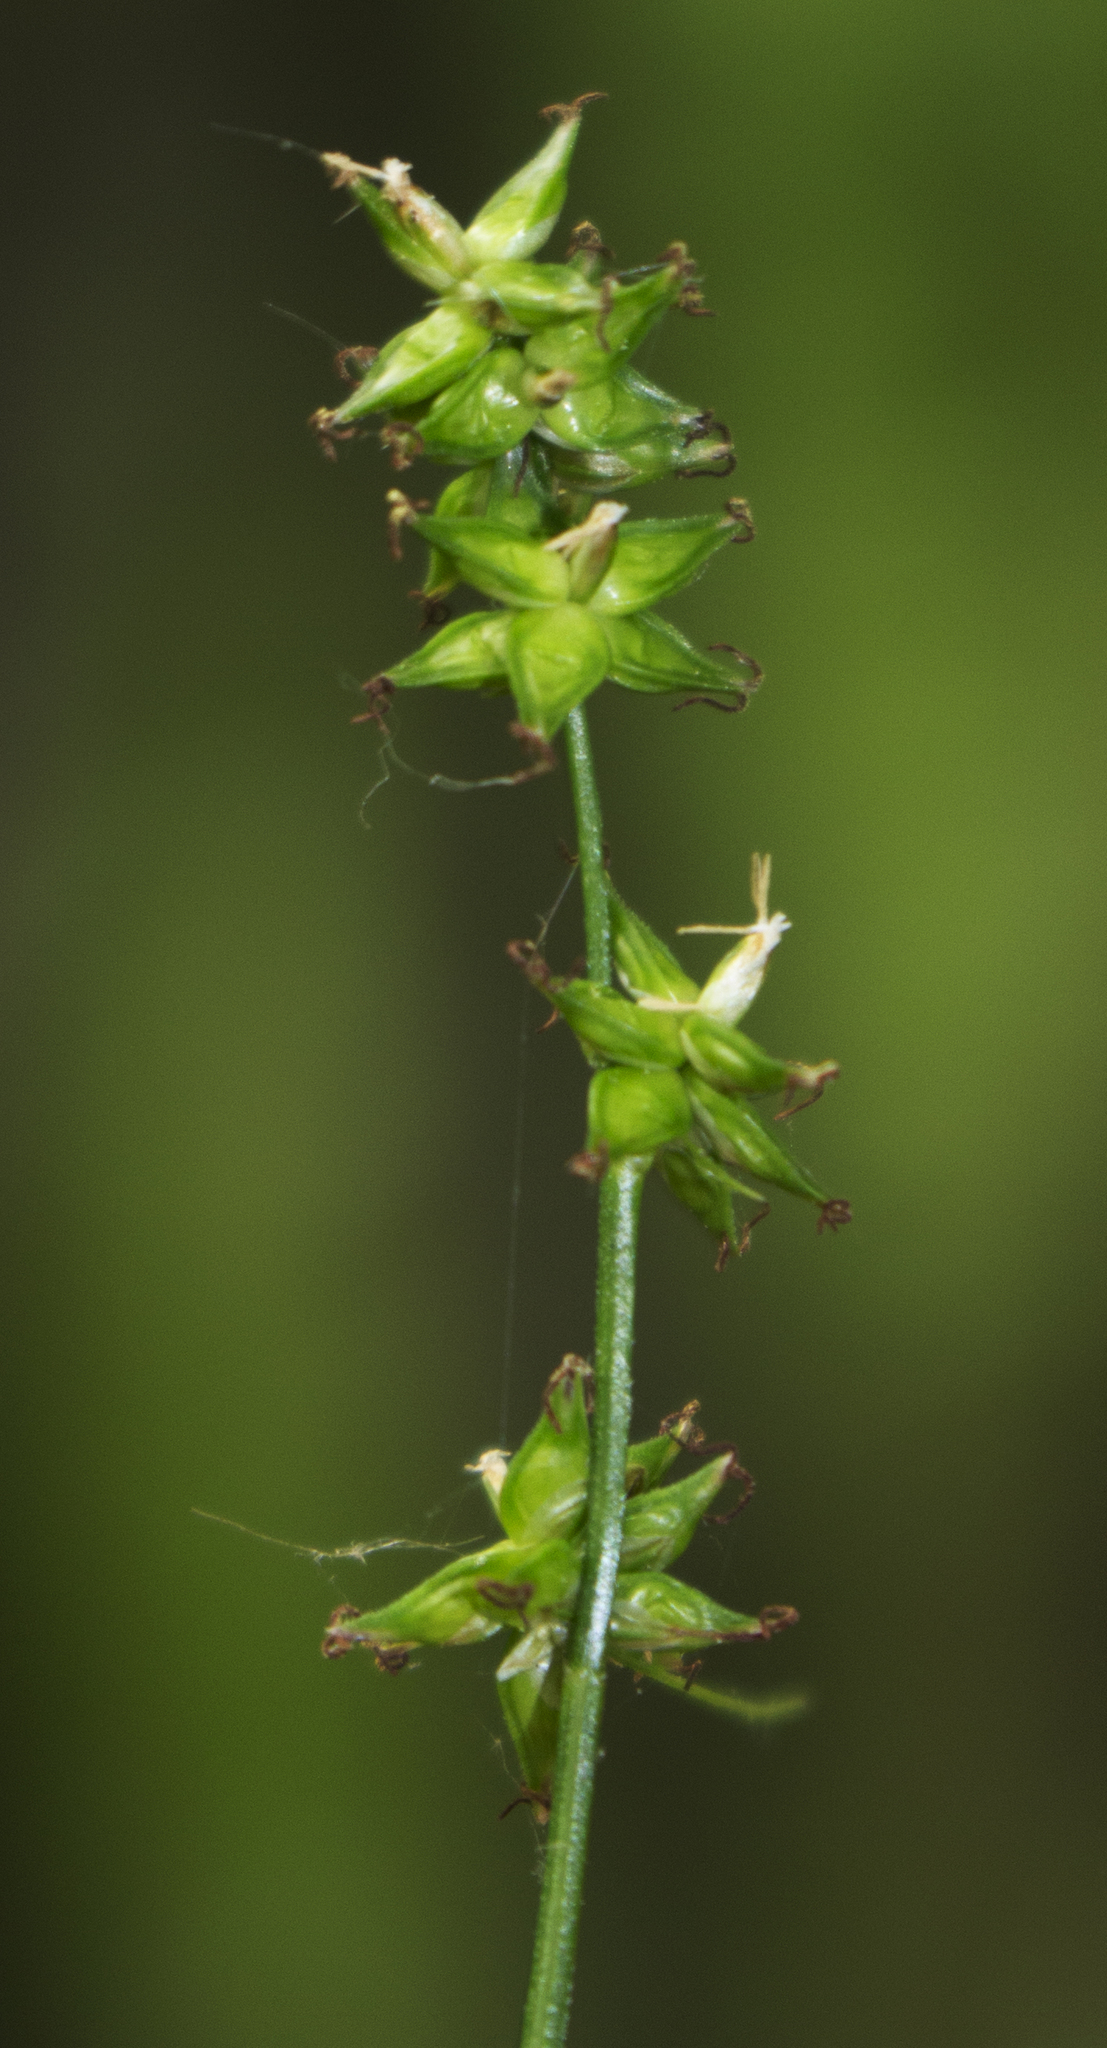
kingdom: Plantae
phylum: Tracheophyta
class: Liliopsida
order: Poales
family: Cyperaceae
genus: Carex
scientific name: Carex radiata
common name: Eastern star sedge
